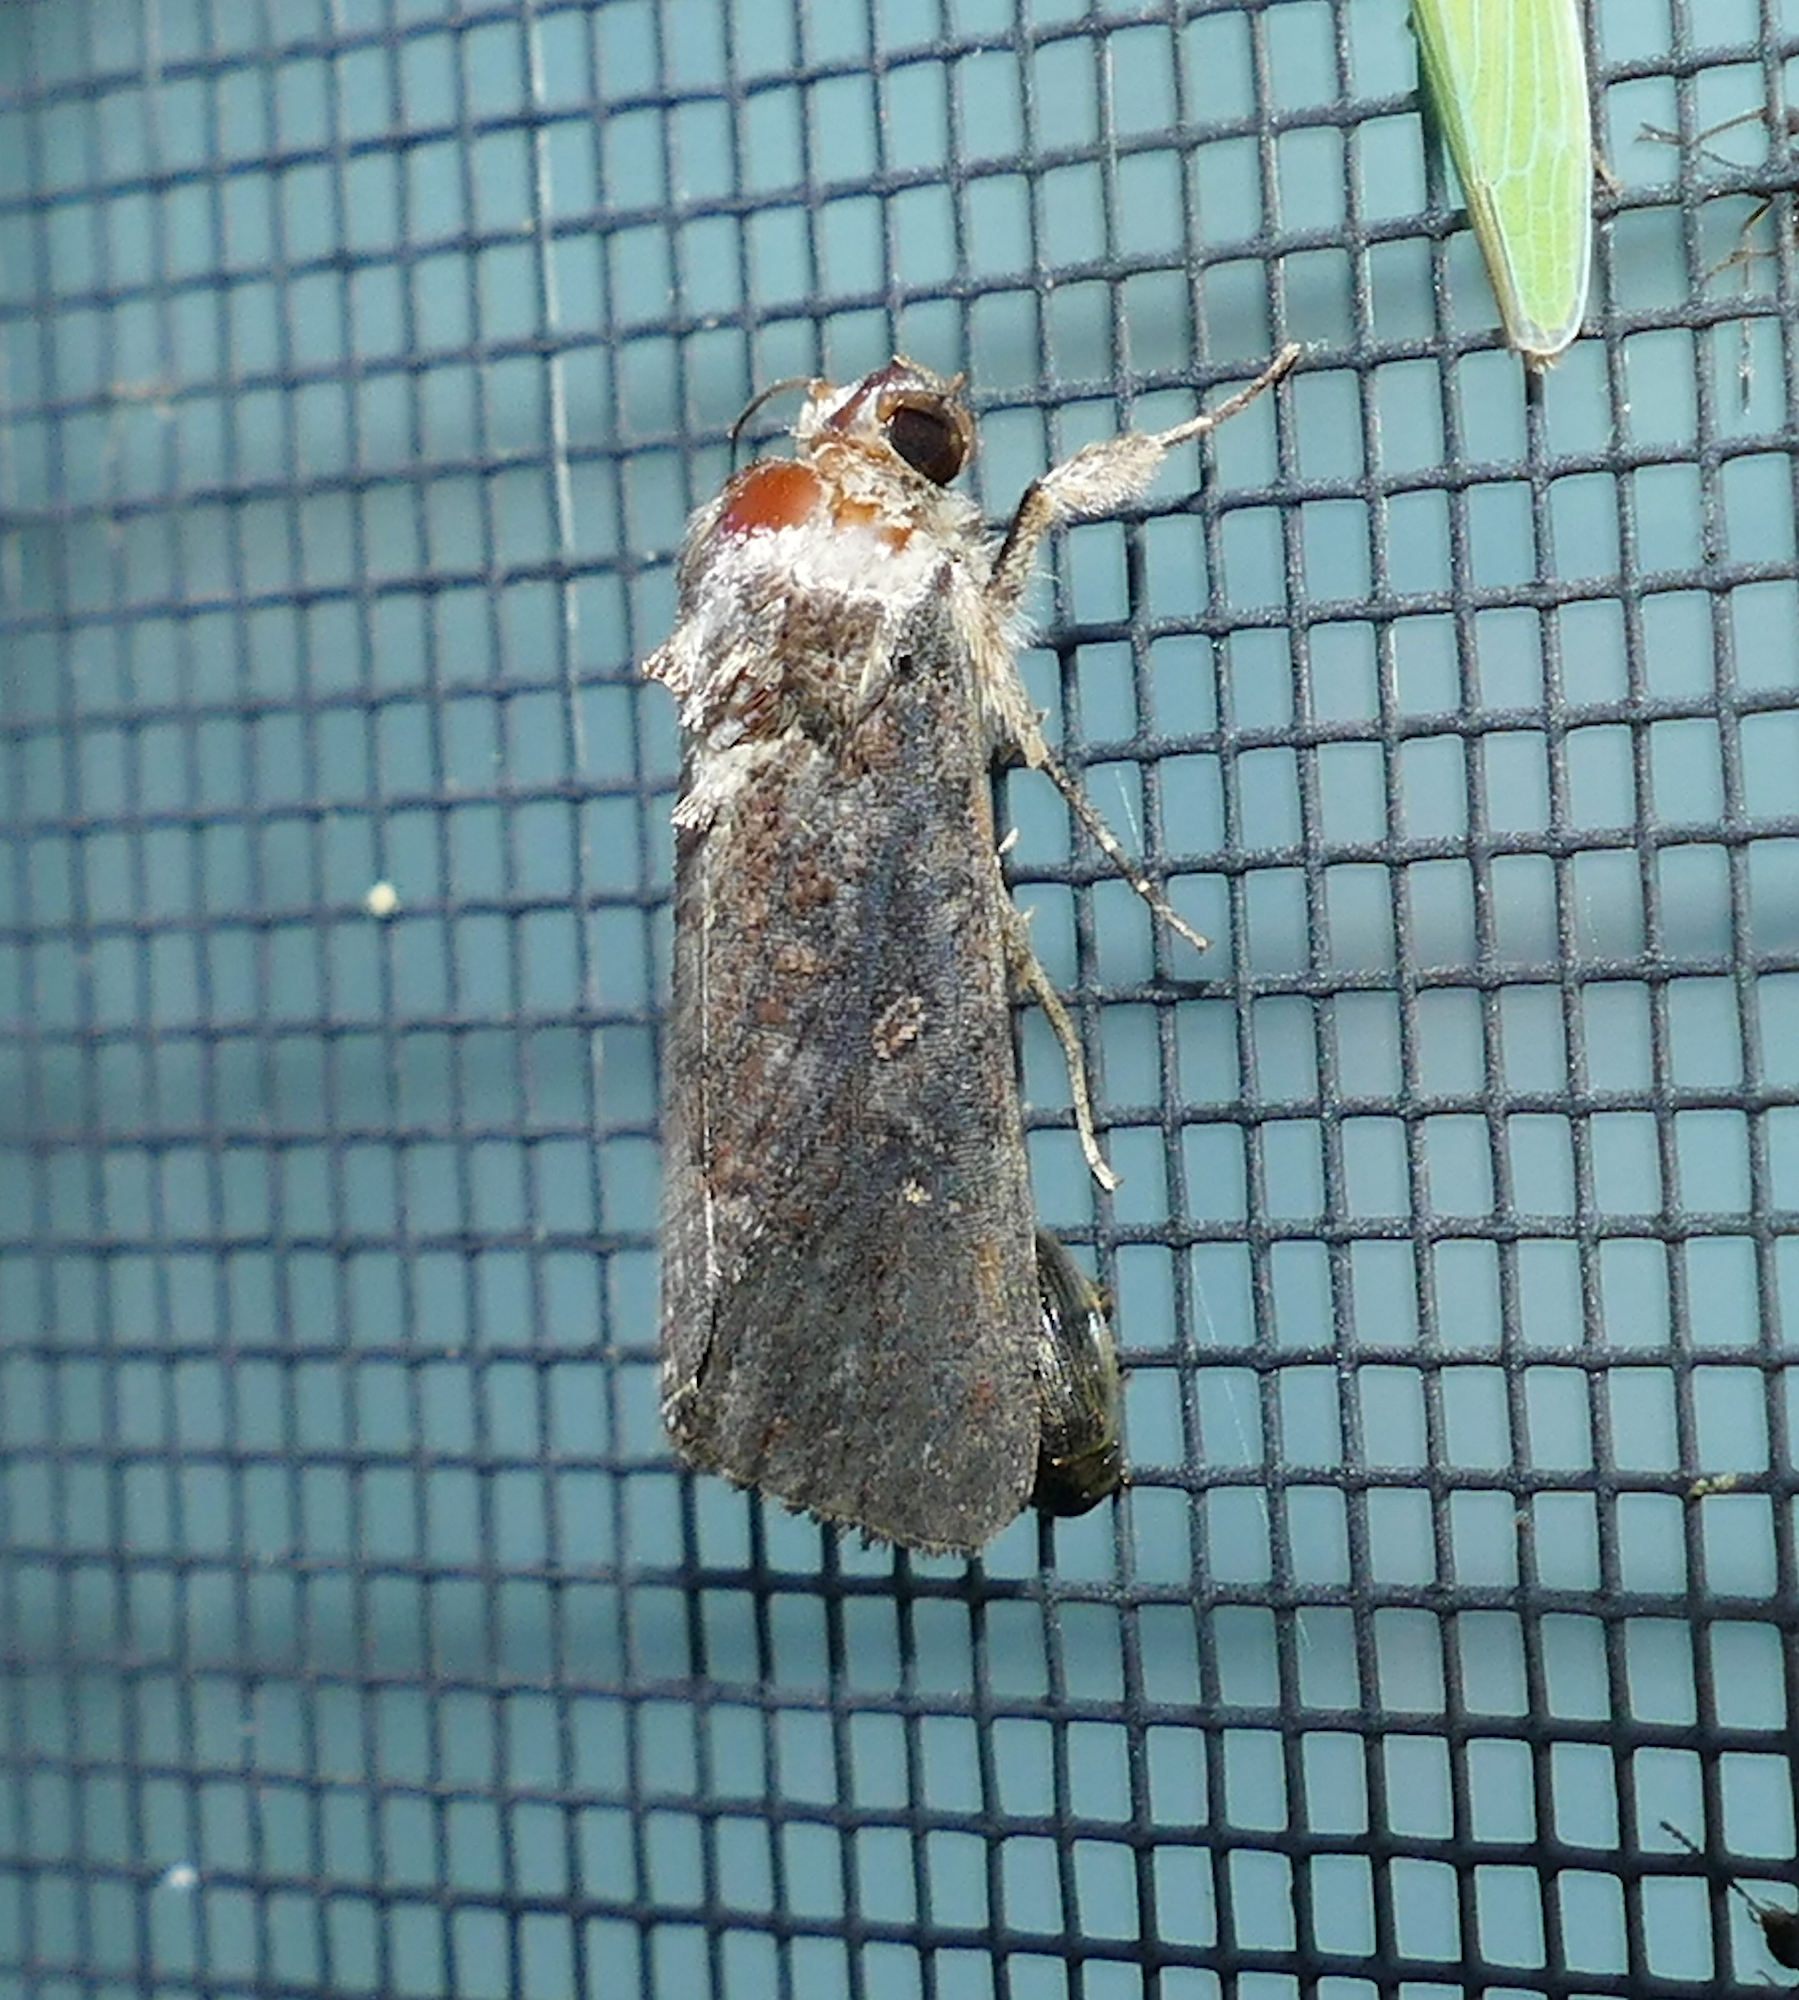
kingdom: Animalia
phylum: Arthropoda
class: Insecta
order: Lepidoptera
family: Noctuidae
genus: Spodoptera
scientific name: Spodoptera frugiperda
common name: Fall armyworm
